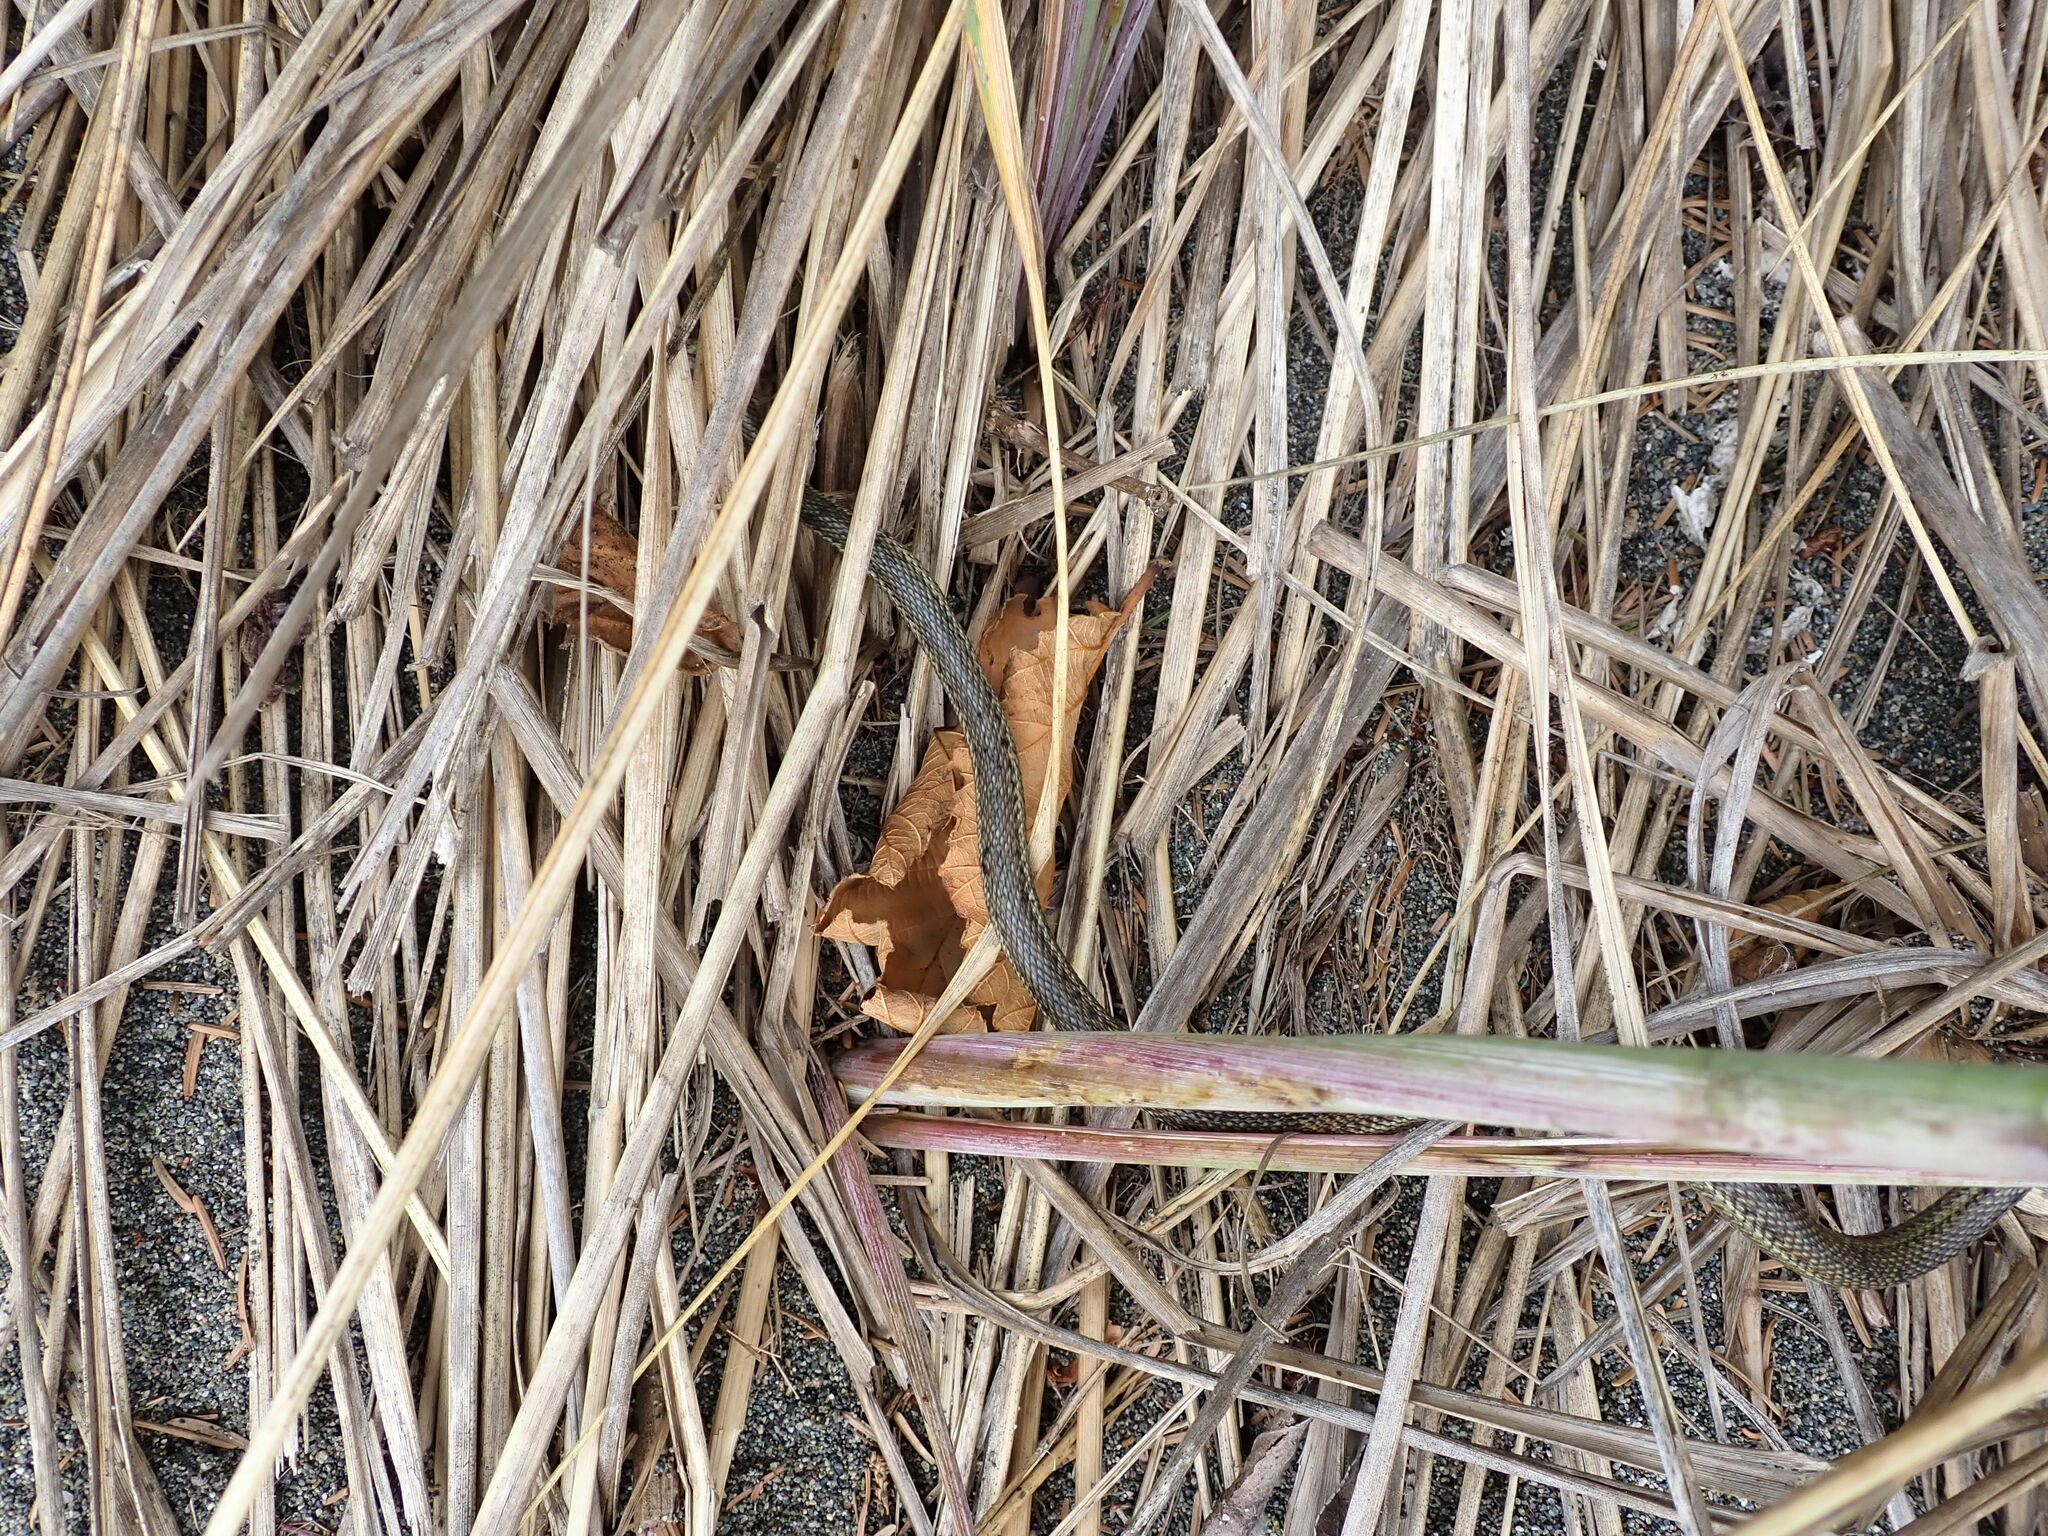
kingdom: Animalia
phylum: Chordata
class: Squamata
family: Colubridae
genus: Thamnophis
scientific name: Thamnophis ordinoides
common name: Northwestern garter snake
